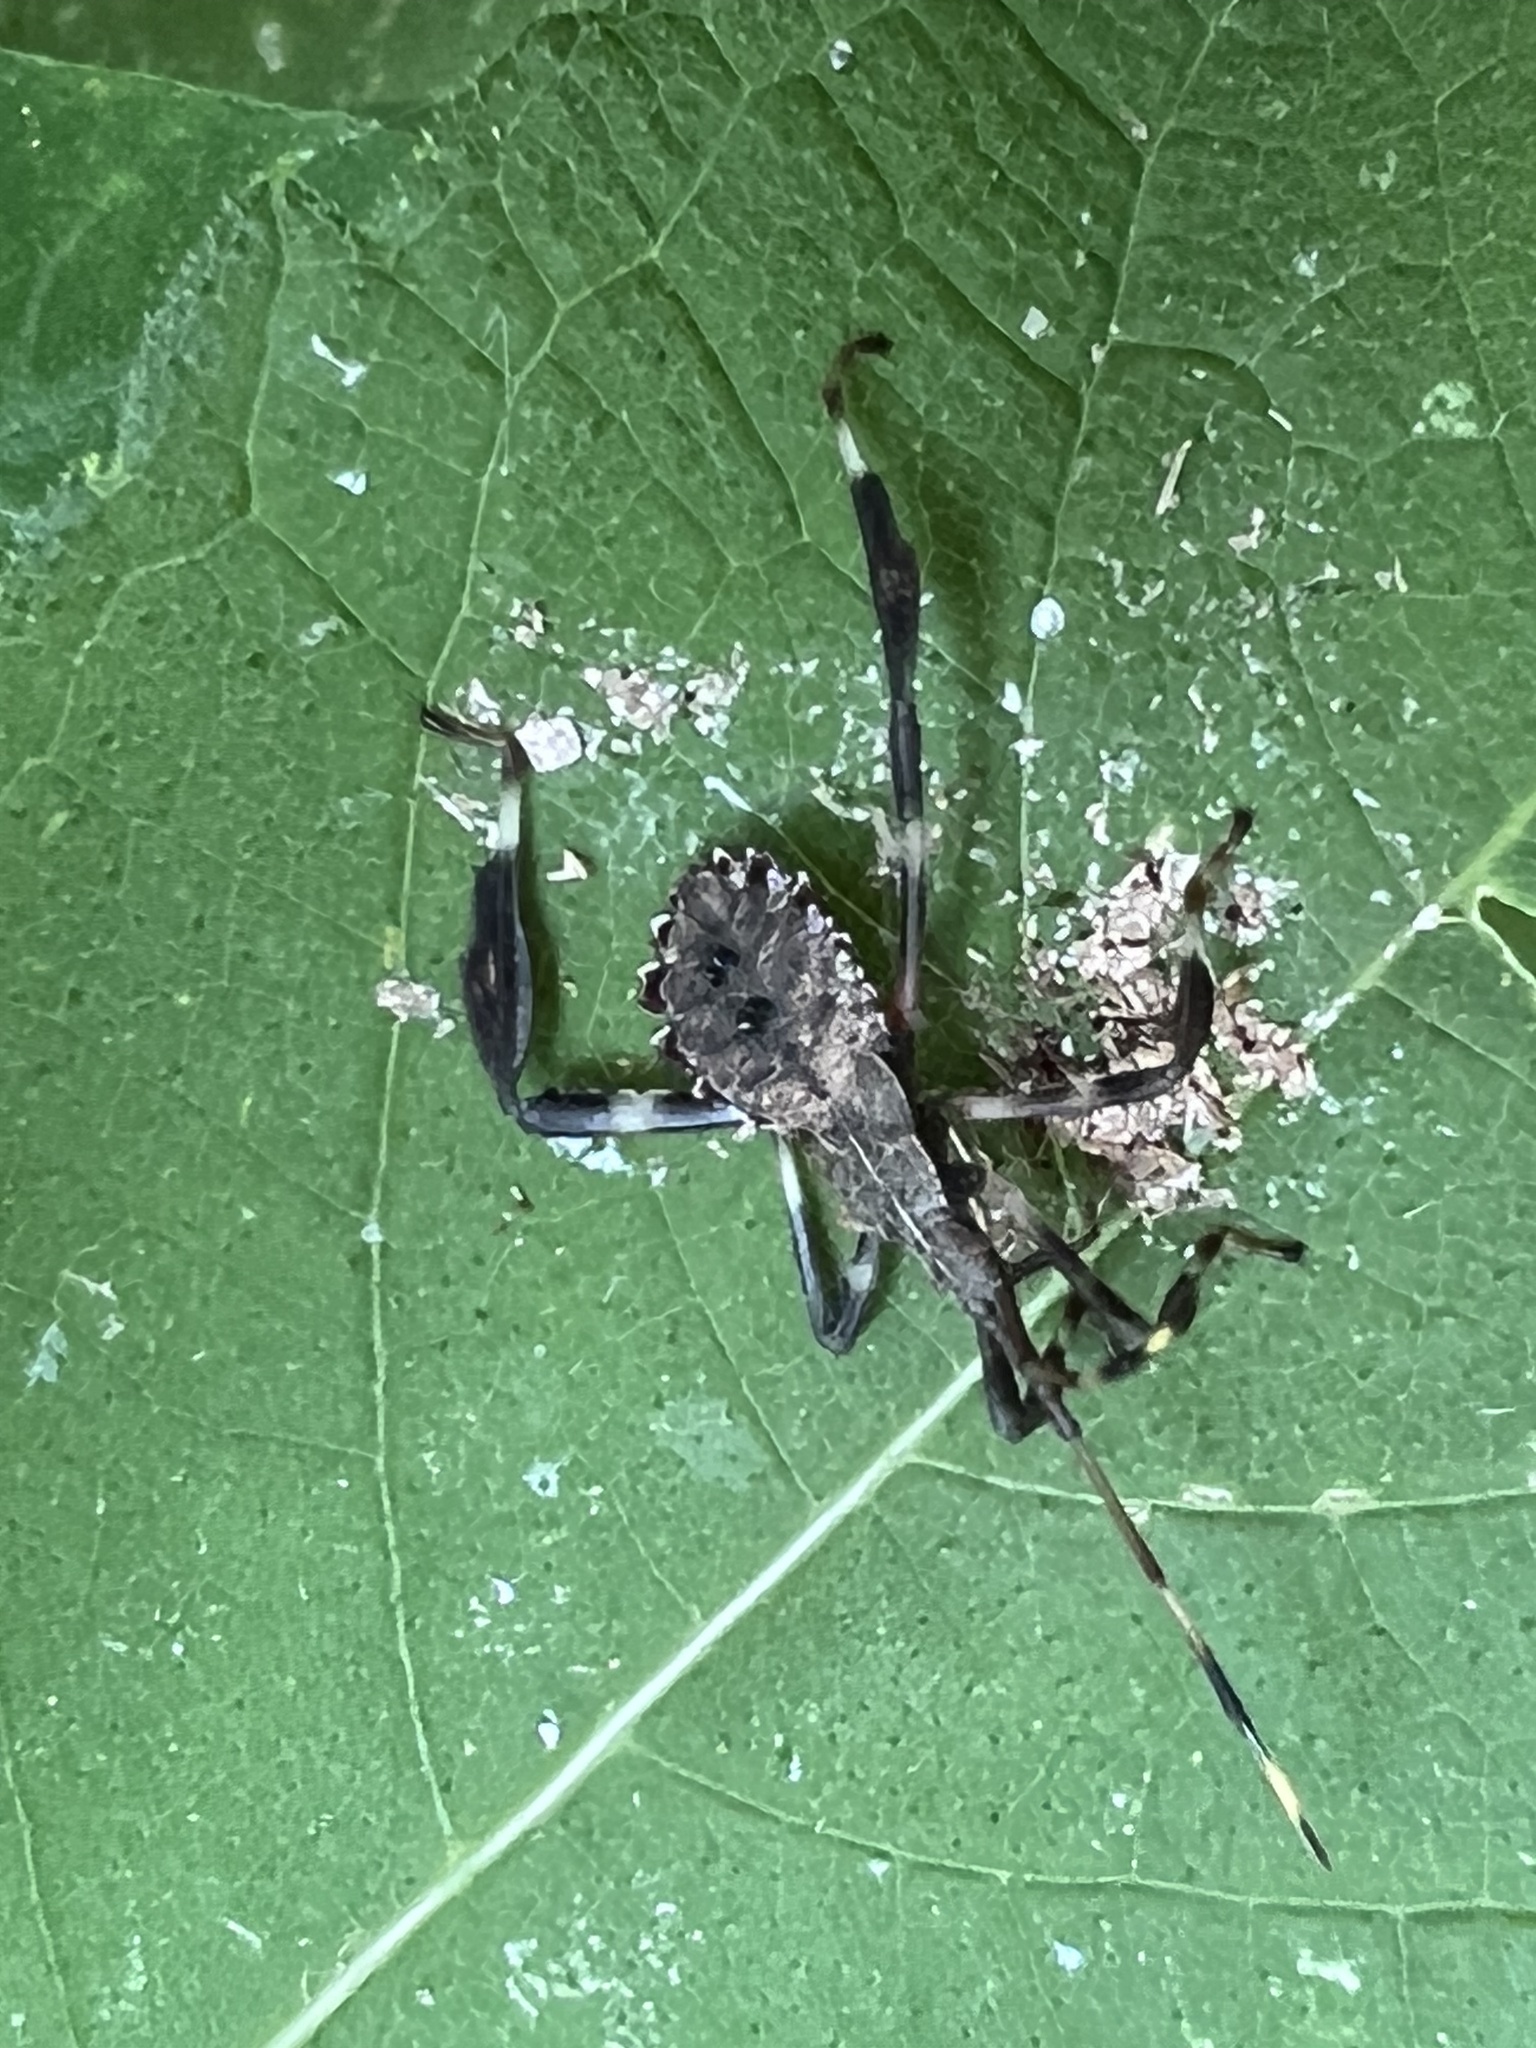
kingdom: Animalia
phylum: Arthropoda
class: Insecta
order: Hemiptera
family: Coreidae
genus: Acanthocephala
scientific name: Acanthocephala terminalis
